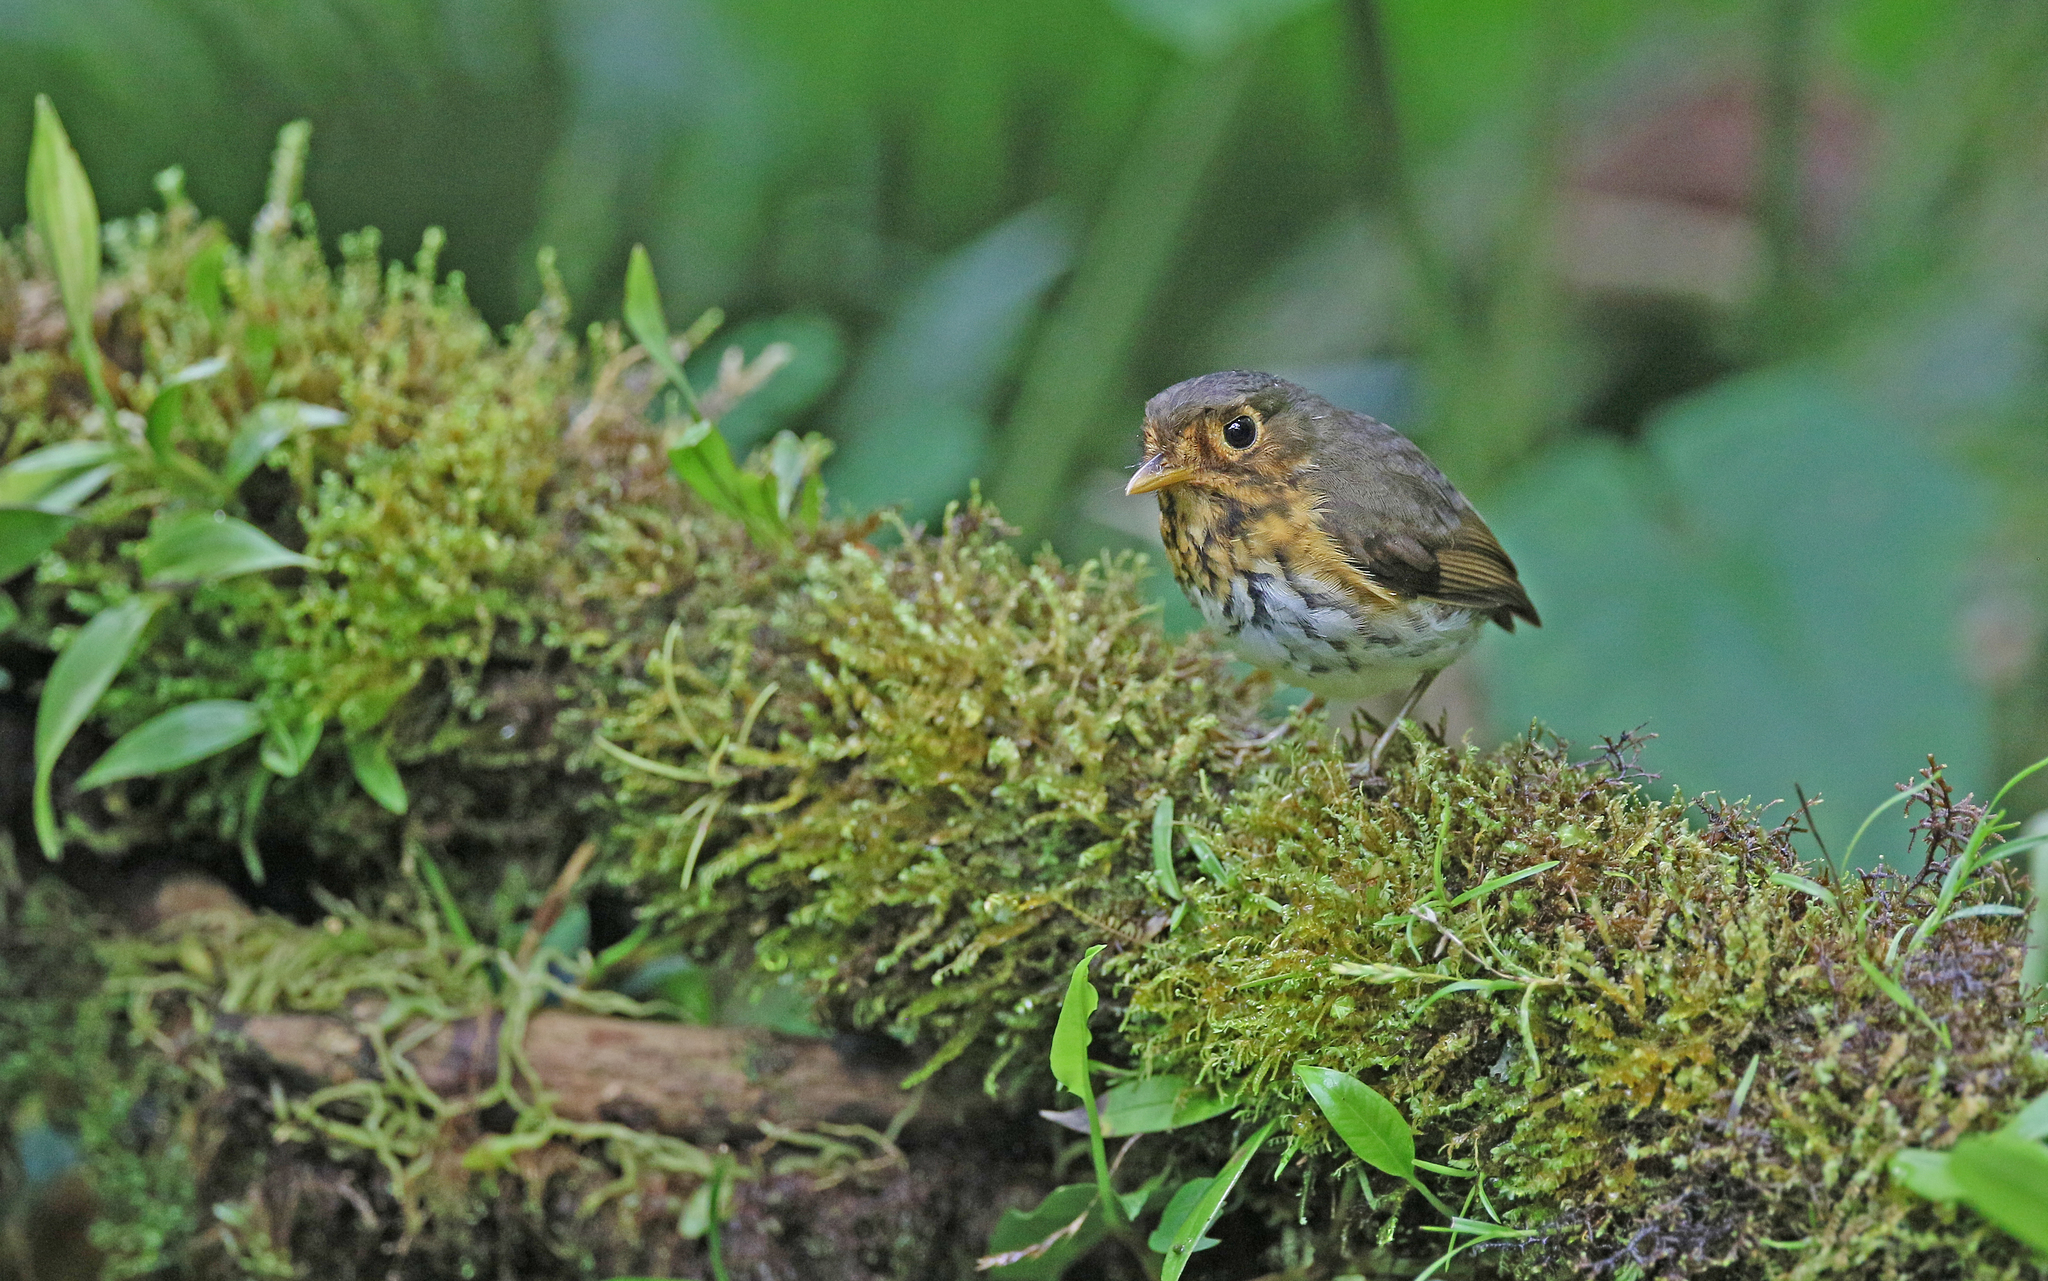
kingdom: Animalia
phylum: Chordata
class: Aves
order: Passeriformes
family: Grallariidae
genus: Grallaricula
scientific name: Grallaricula flavirostris
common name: Ochre-breasted antpitta
